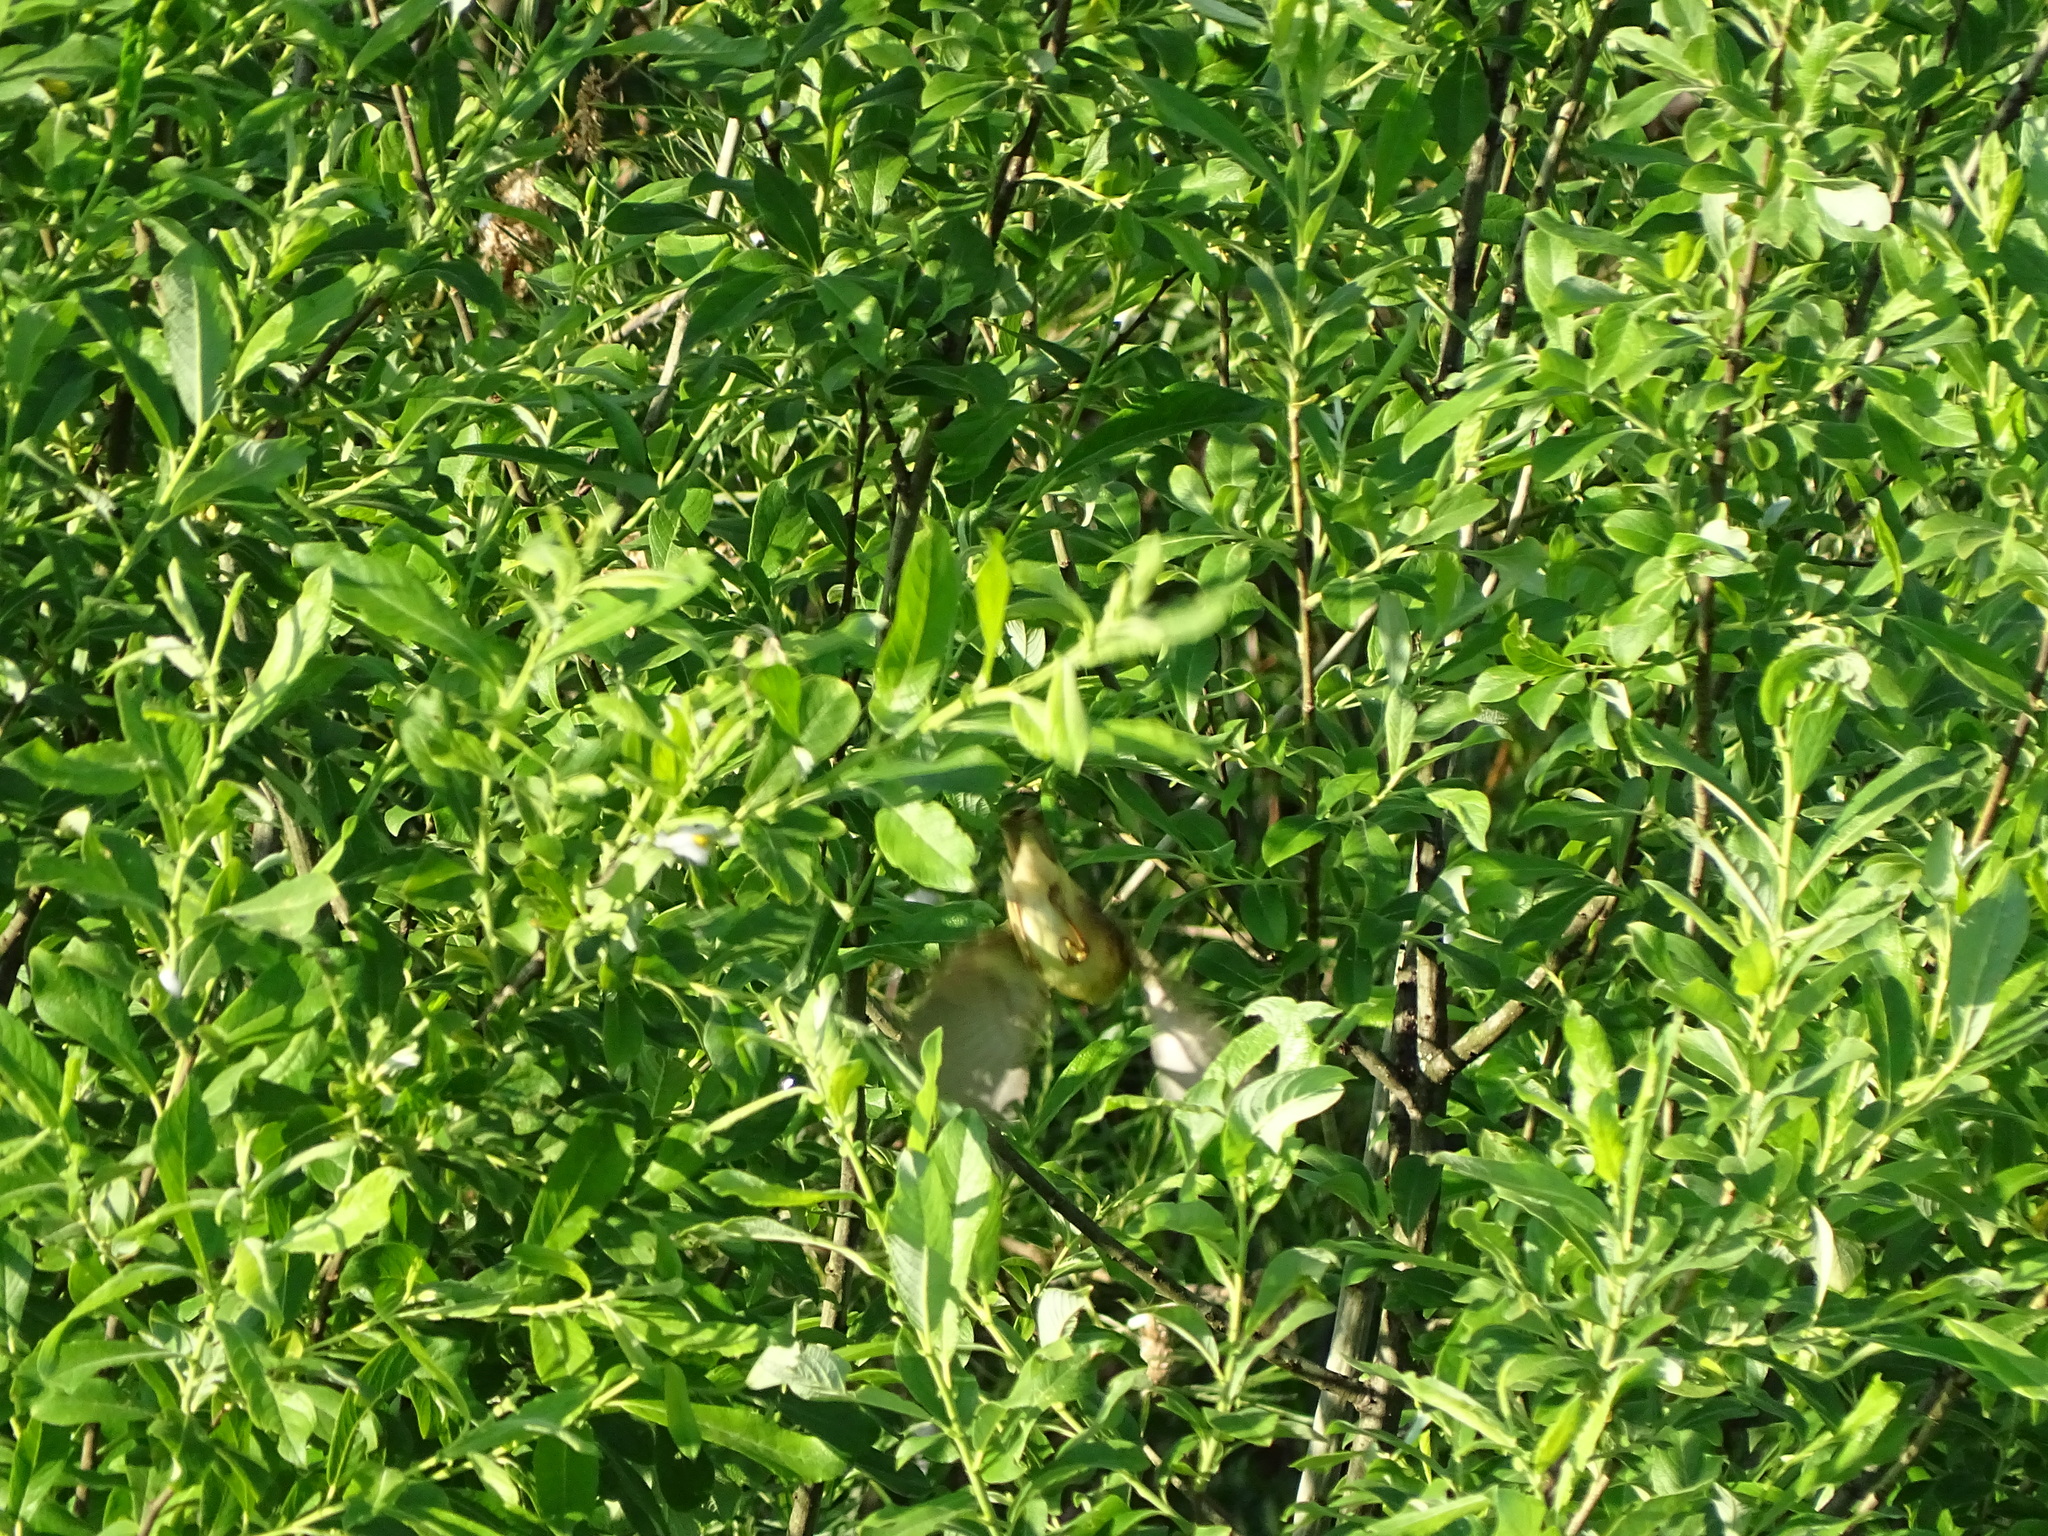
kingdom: Animalia
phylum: Chordata
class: Aves
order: Passeriformes
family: Acrocephalidae
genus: Acrocephalus
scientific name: Acrocephalus palustris
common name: Marsh warbler
